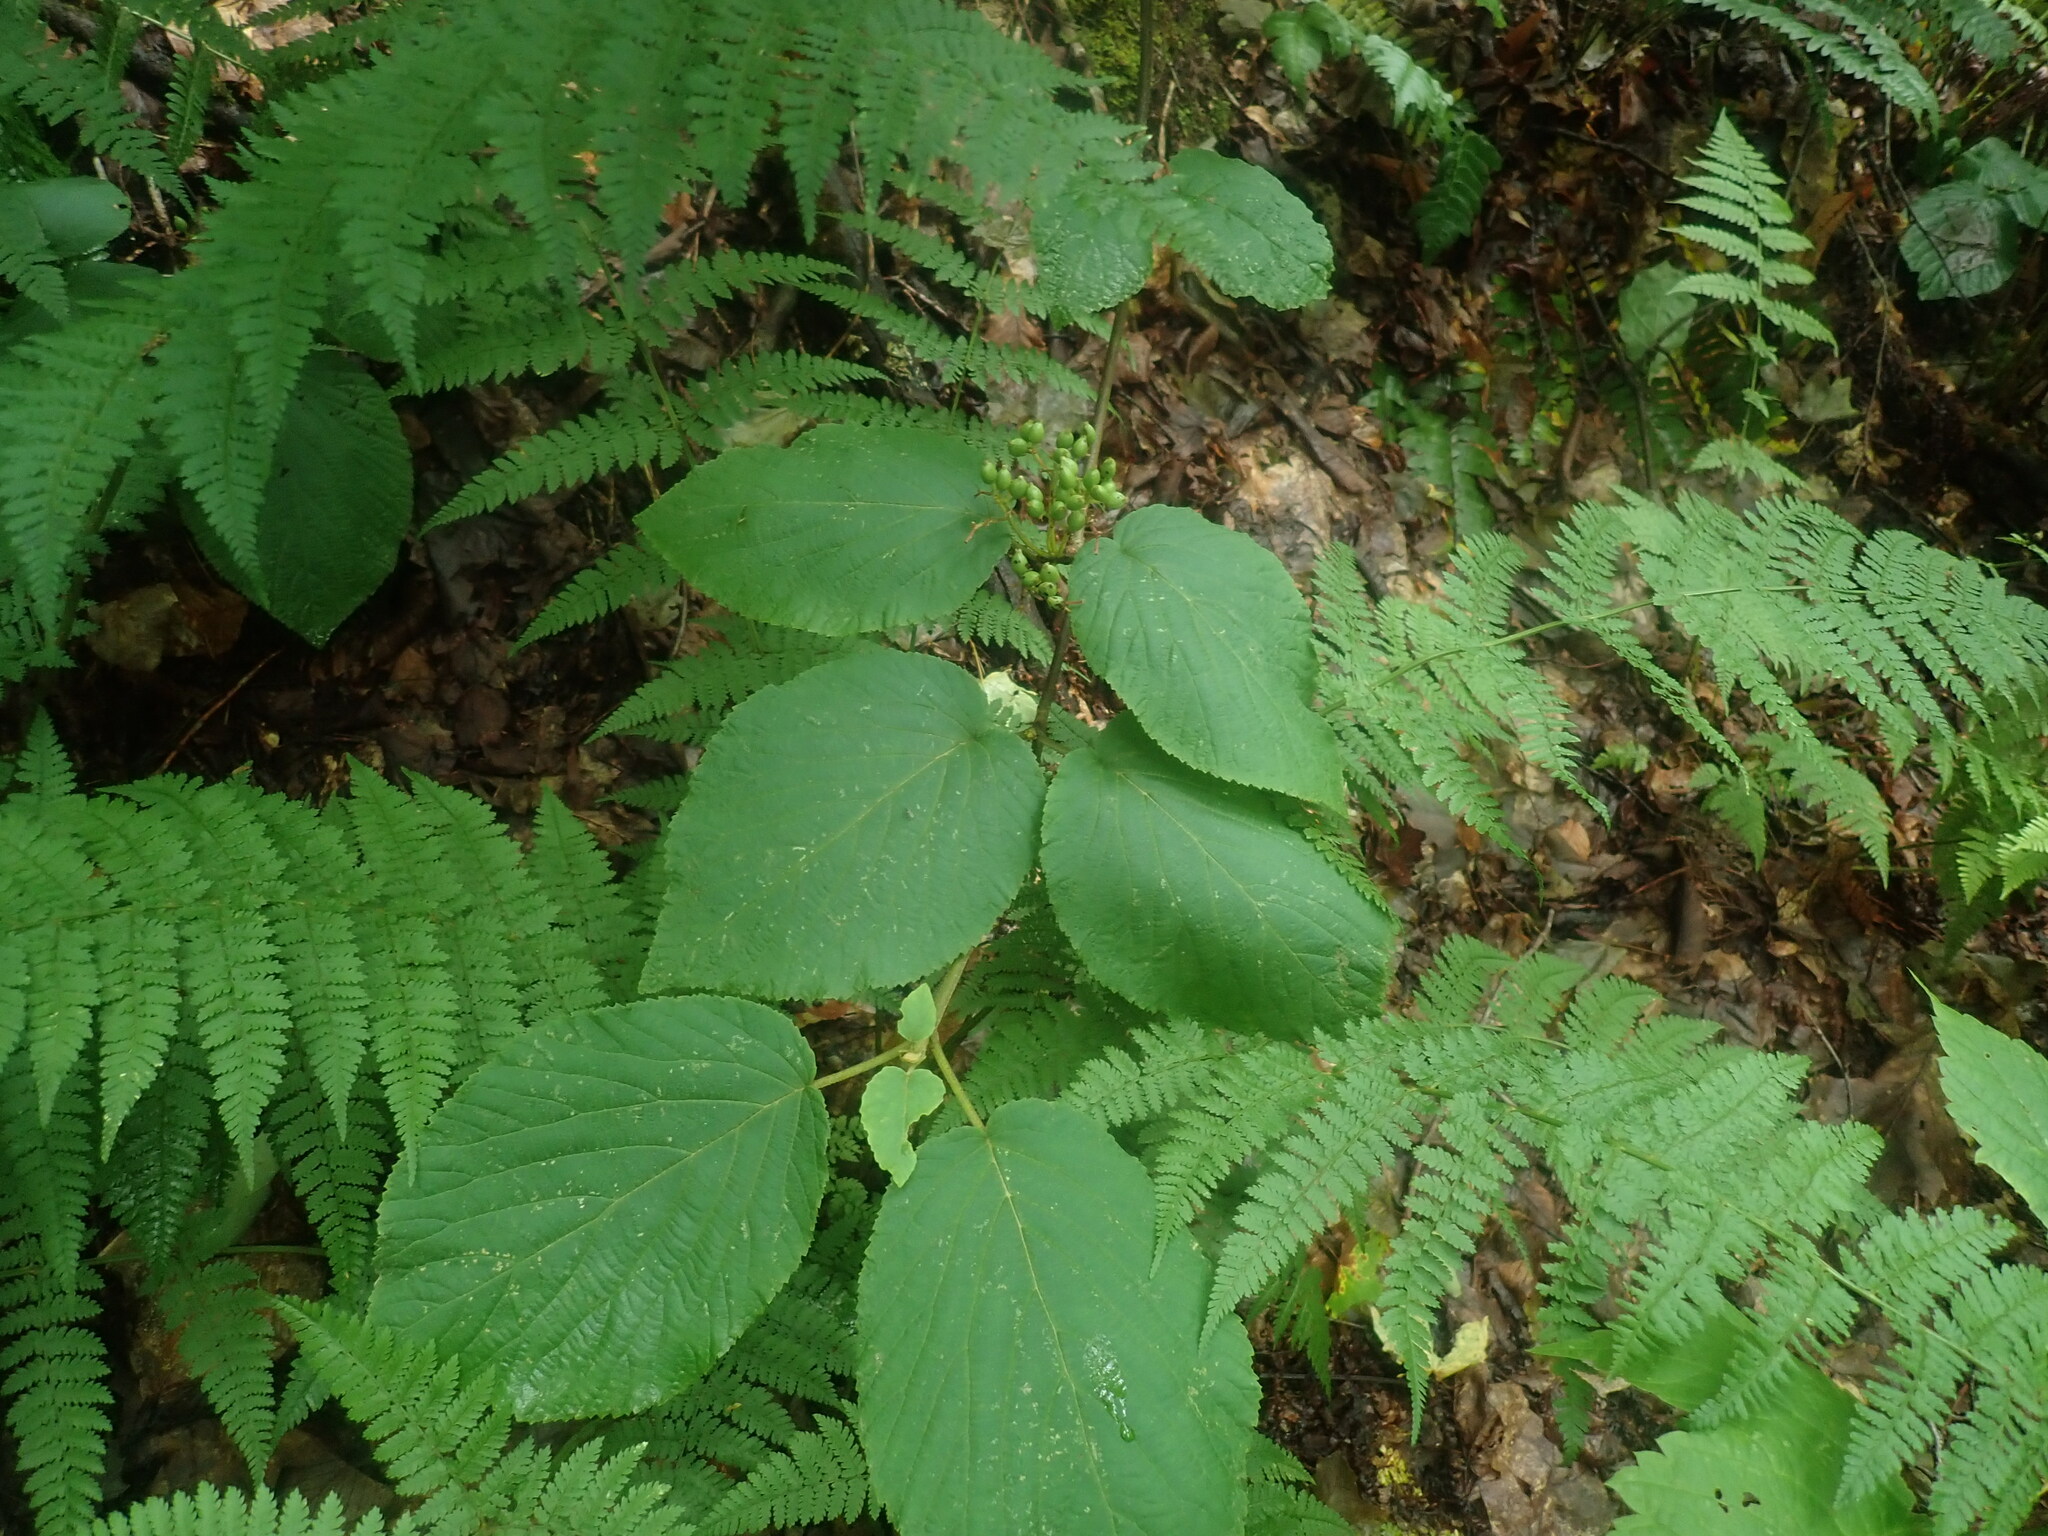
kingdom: Plantae
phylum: Tracheophyta
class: Magnoliopsida
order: Dipsacales
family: Viburnaceae
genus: Viburnum
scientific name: Viburnum lantanoides
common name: Hobblebush
